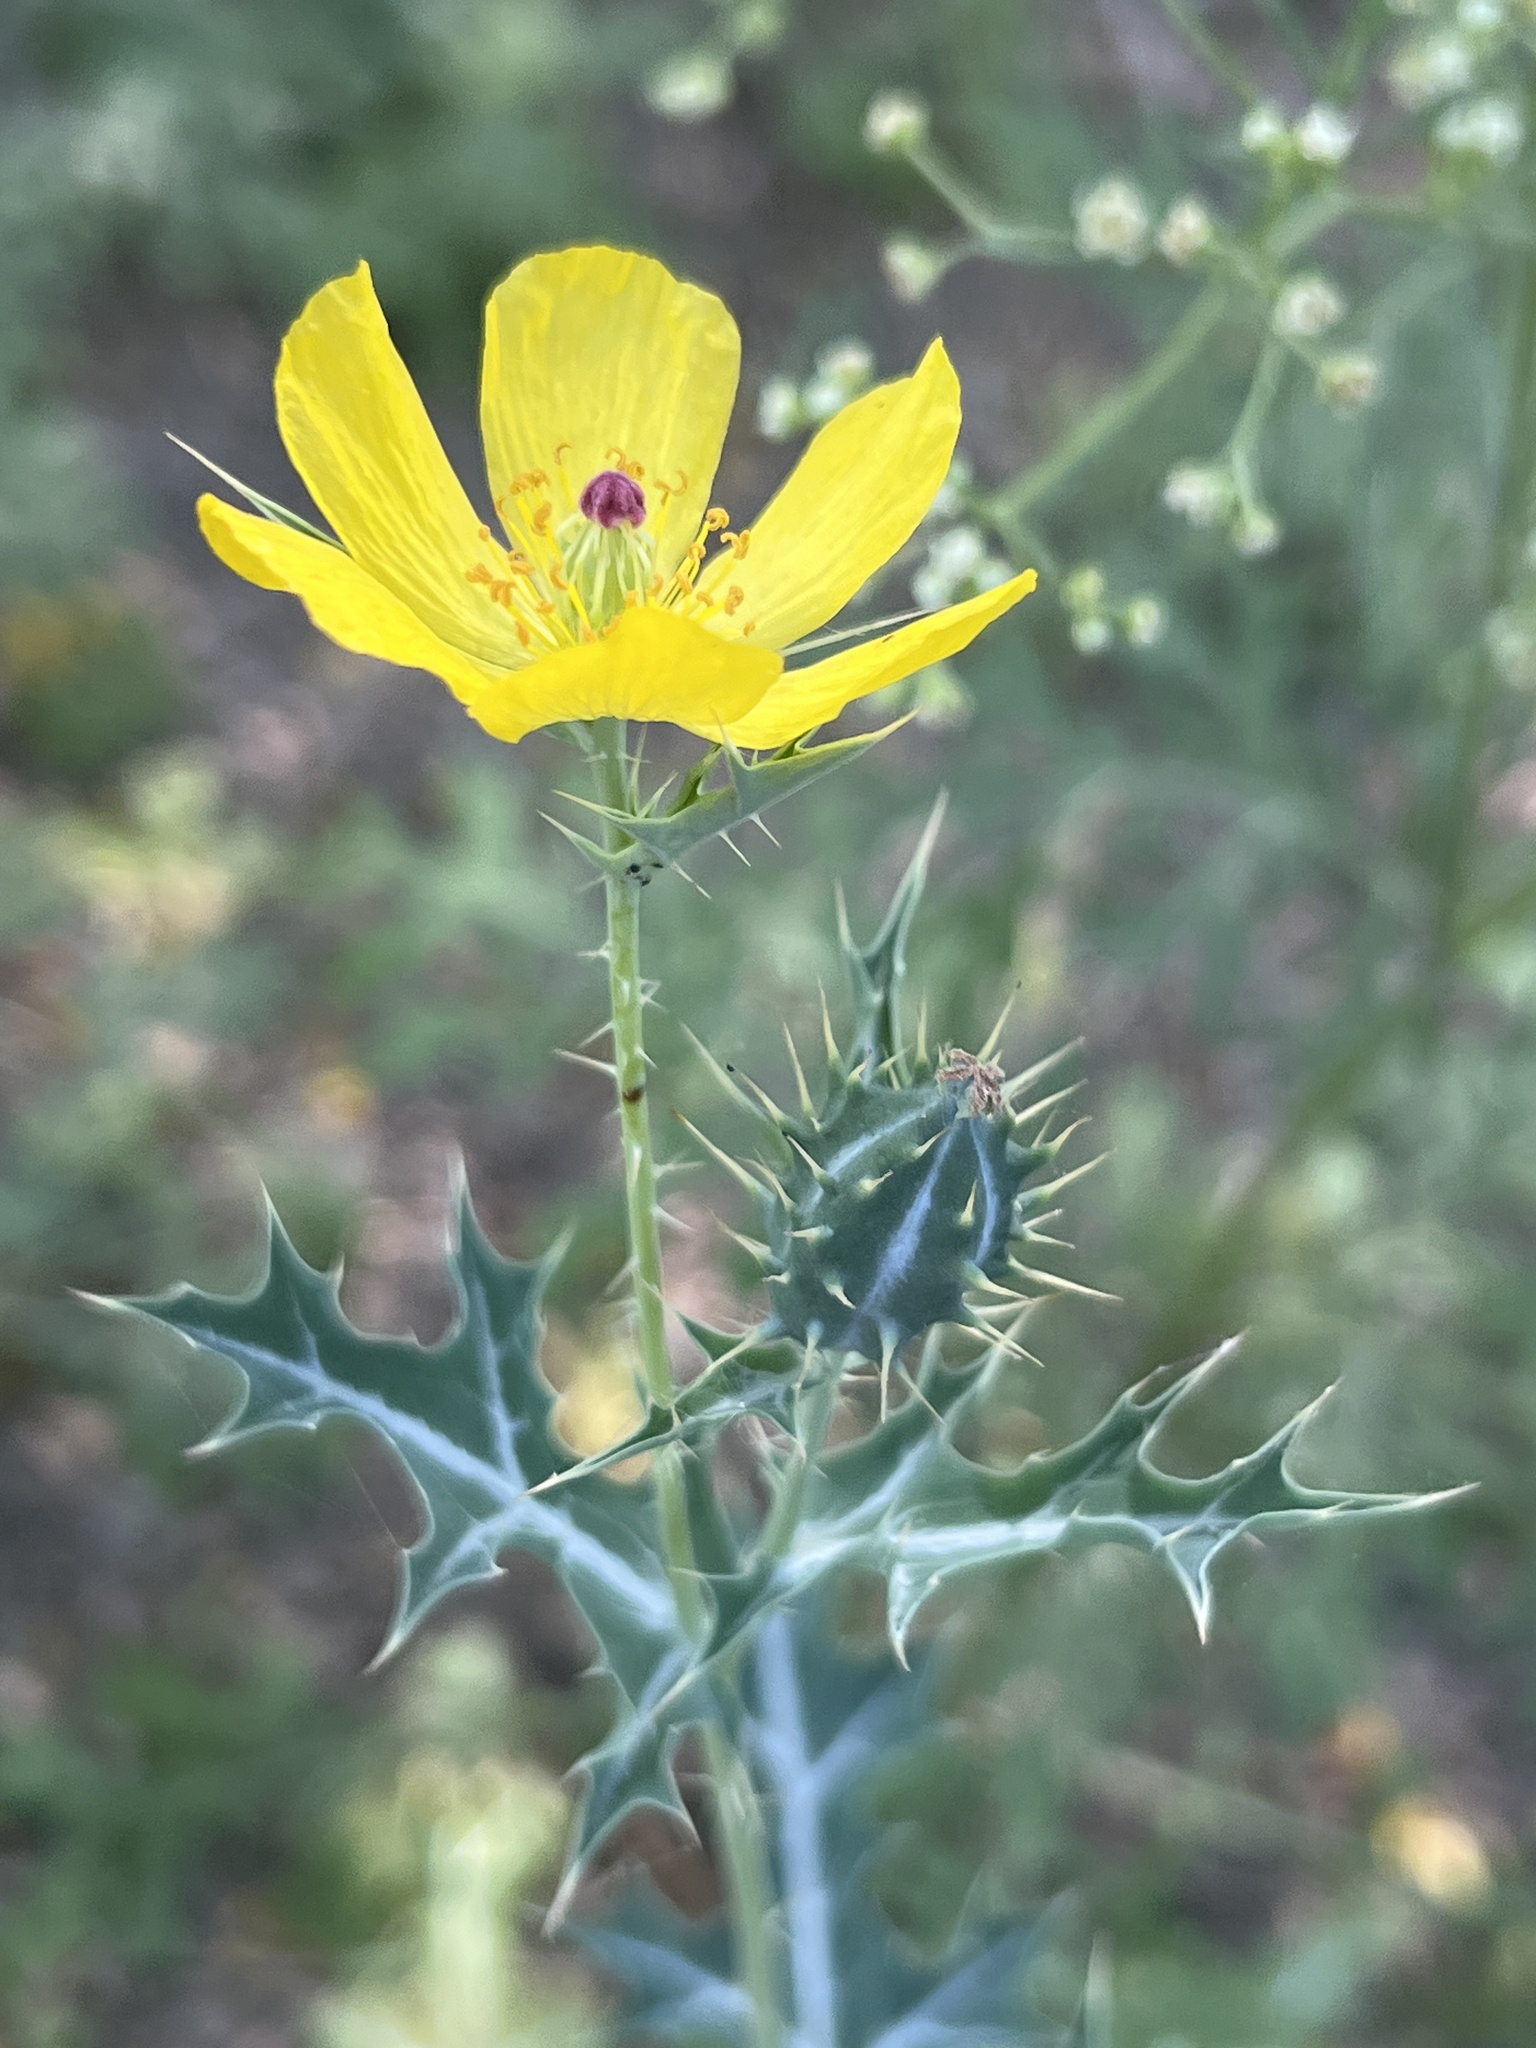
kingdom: Plantae
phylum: Tracheophyta
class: Magnoliopsida
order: Ranunculales
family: Papaveraceae
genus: Argemone
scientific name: Argemone mexicana
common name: Mexican poppy
